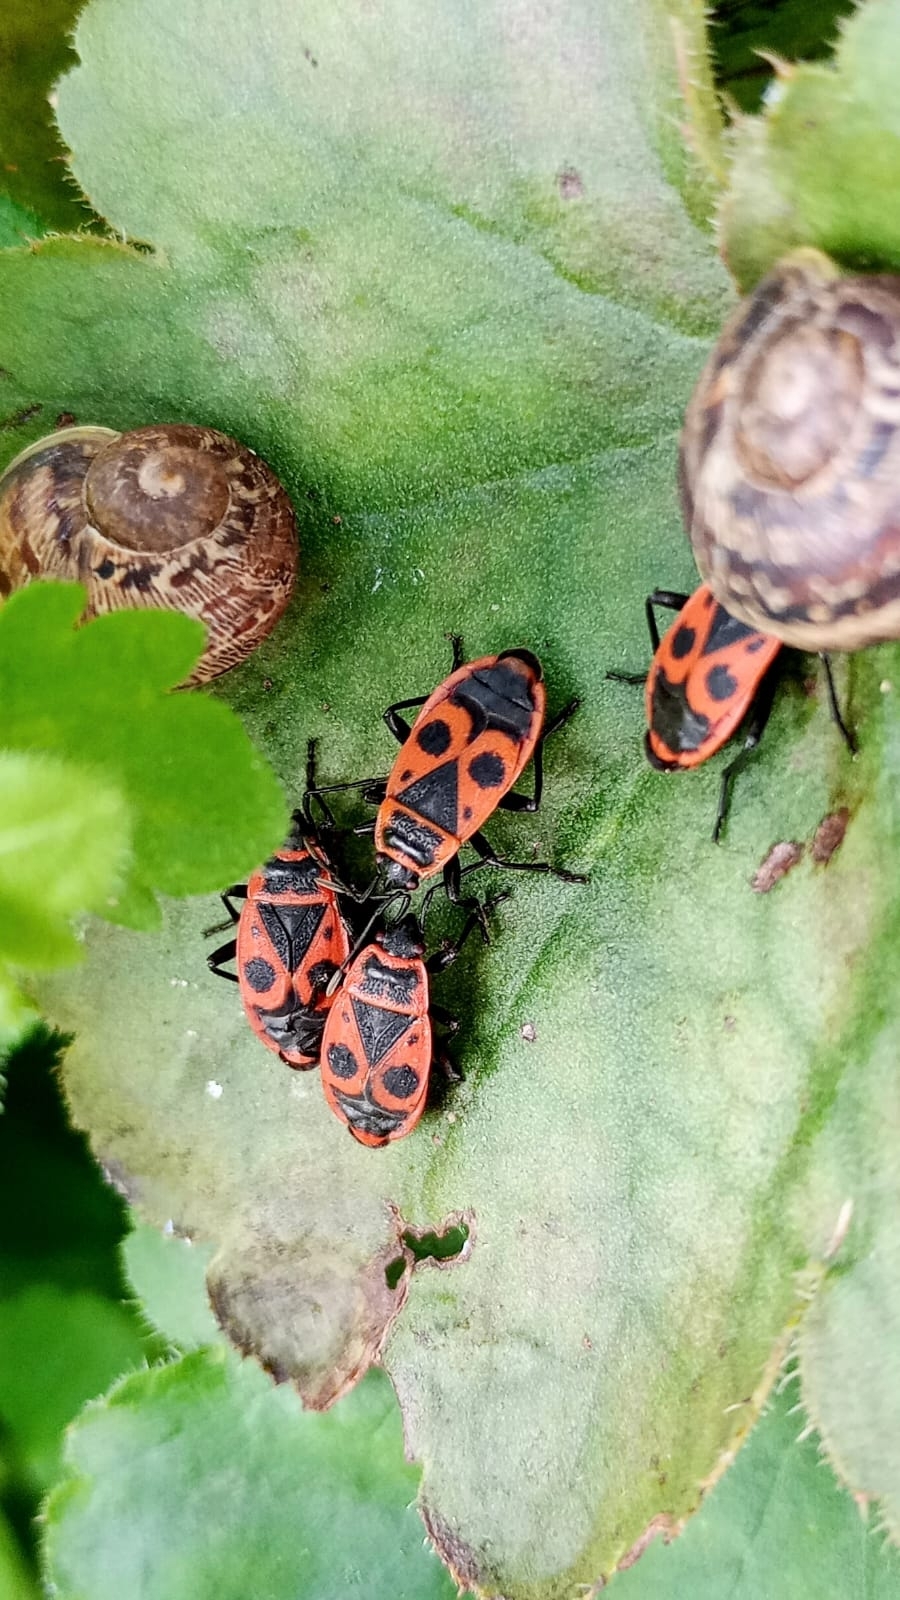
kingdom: Animalia
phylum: Arthropoda
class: Insecta
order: Hemiptera
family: Pyrrhocoridae
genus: Pyrrhocoris
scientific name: Pyrrhocoris apterus
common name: Firebug
